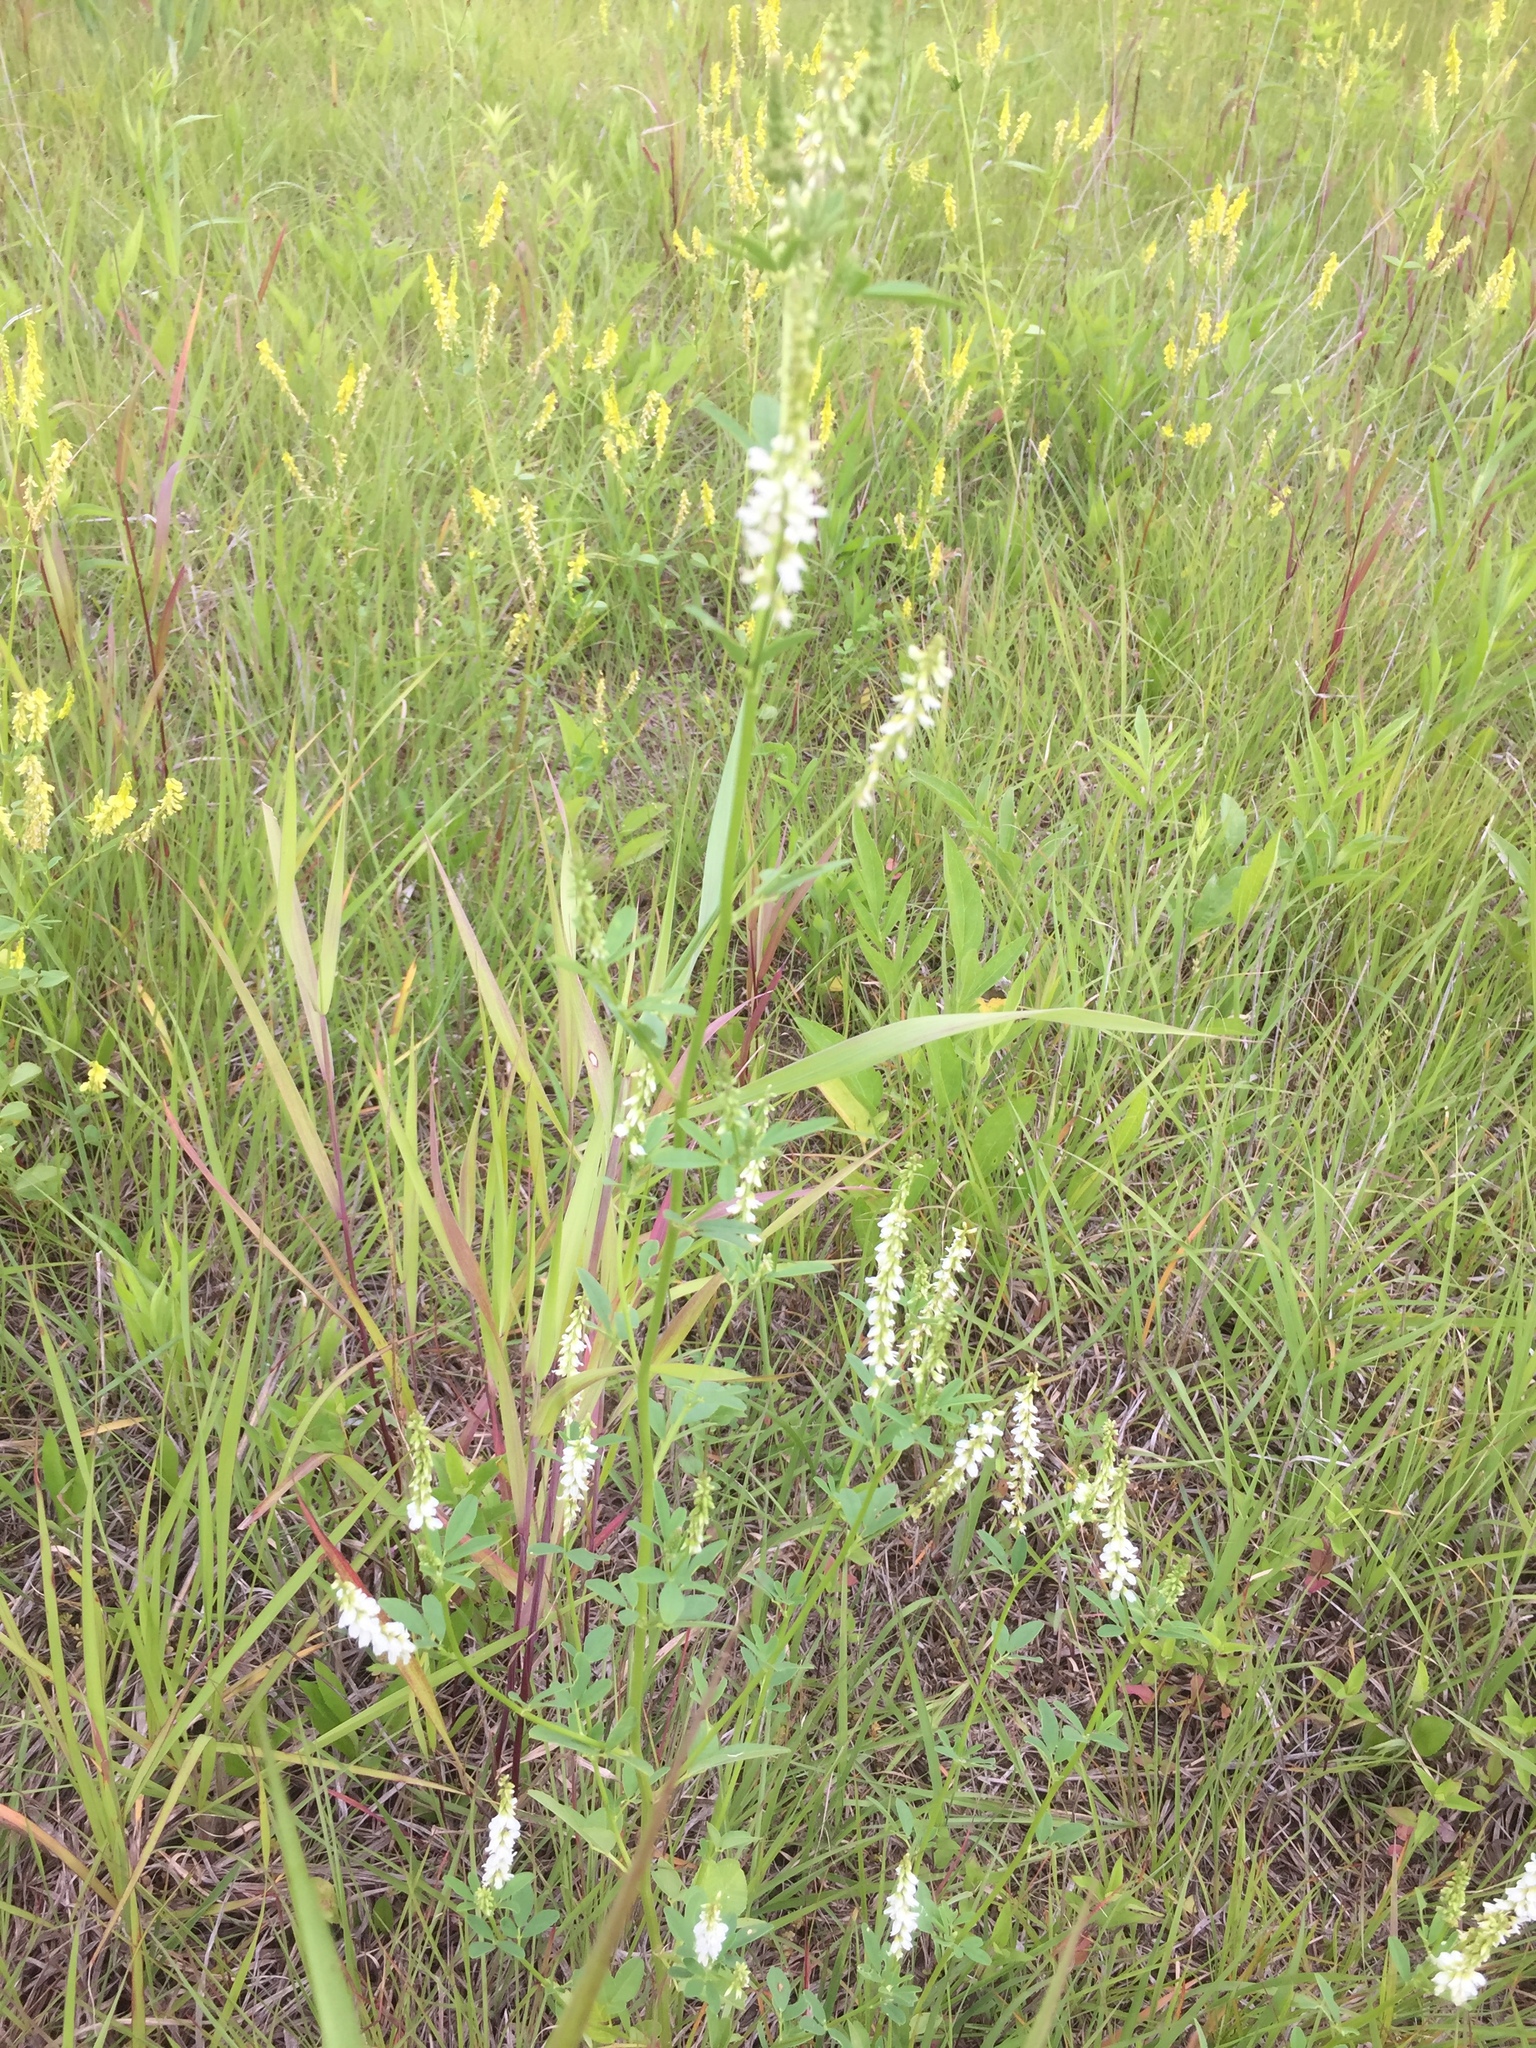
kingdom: Plantae
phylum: Tracheophyta
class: Magnoliopsida
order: Fabales
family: Fabaceae
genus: Melilotus
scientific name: Melilotus albus
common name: White melilot
